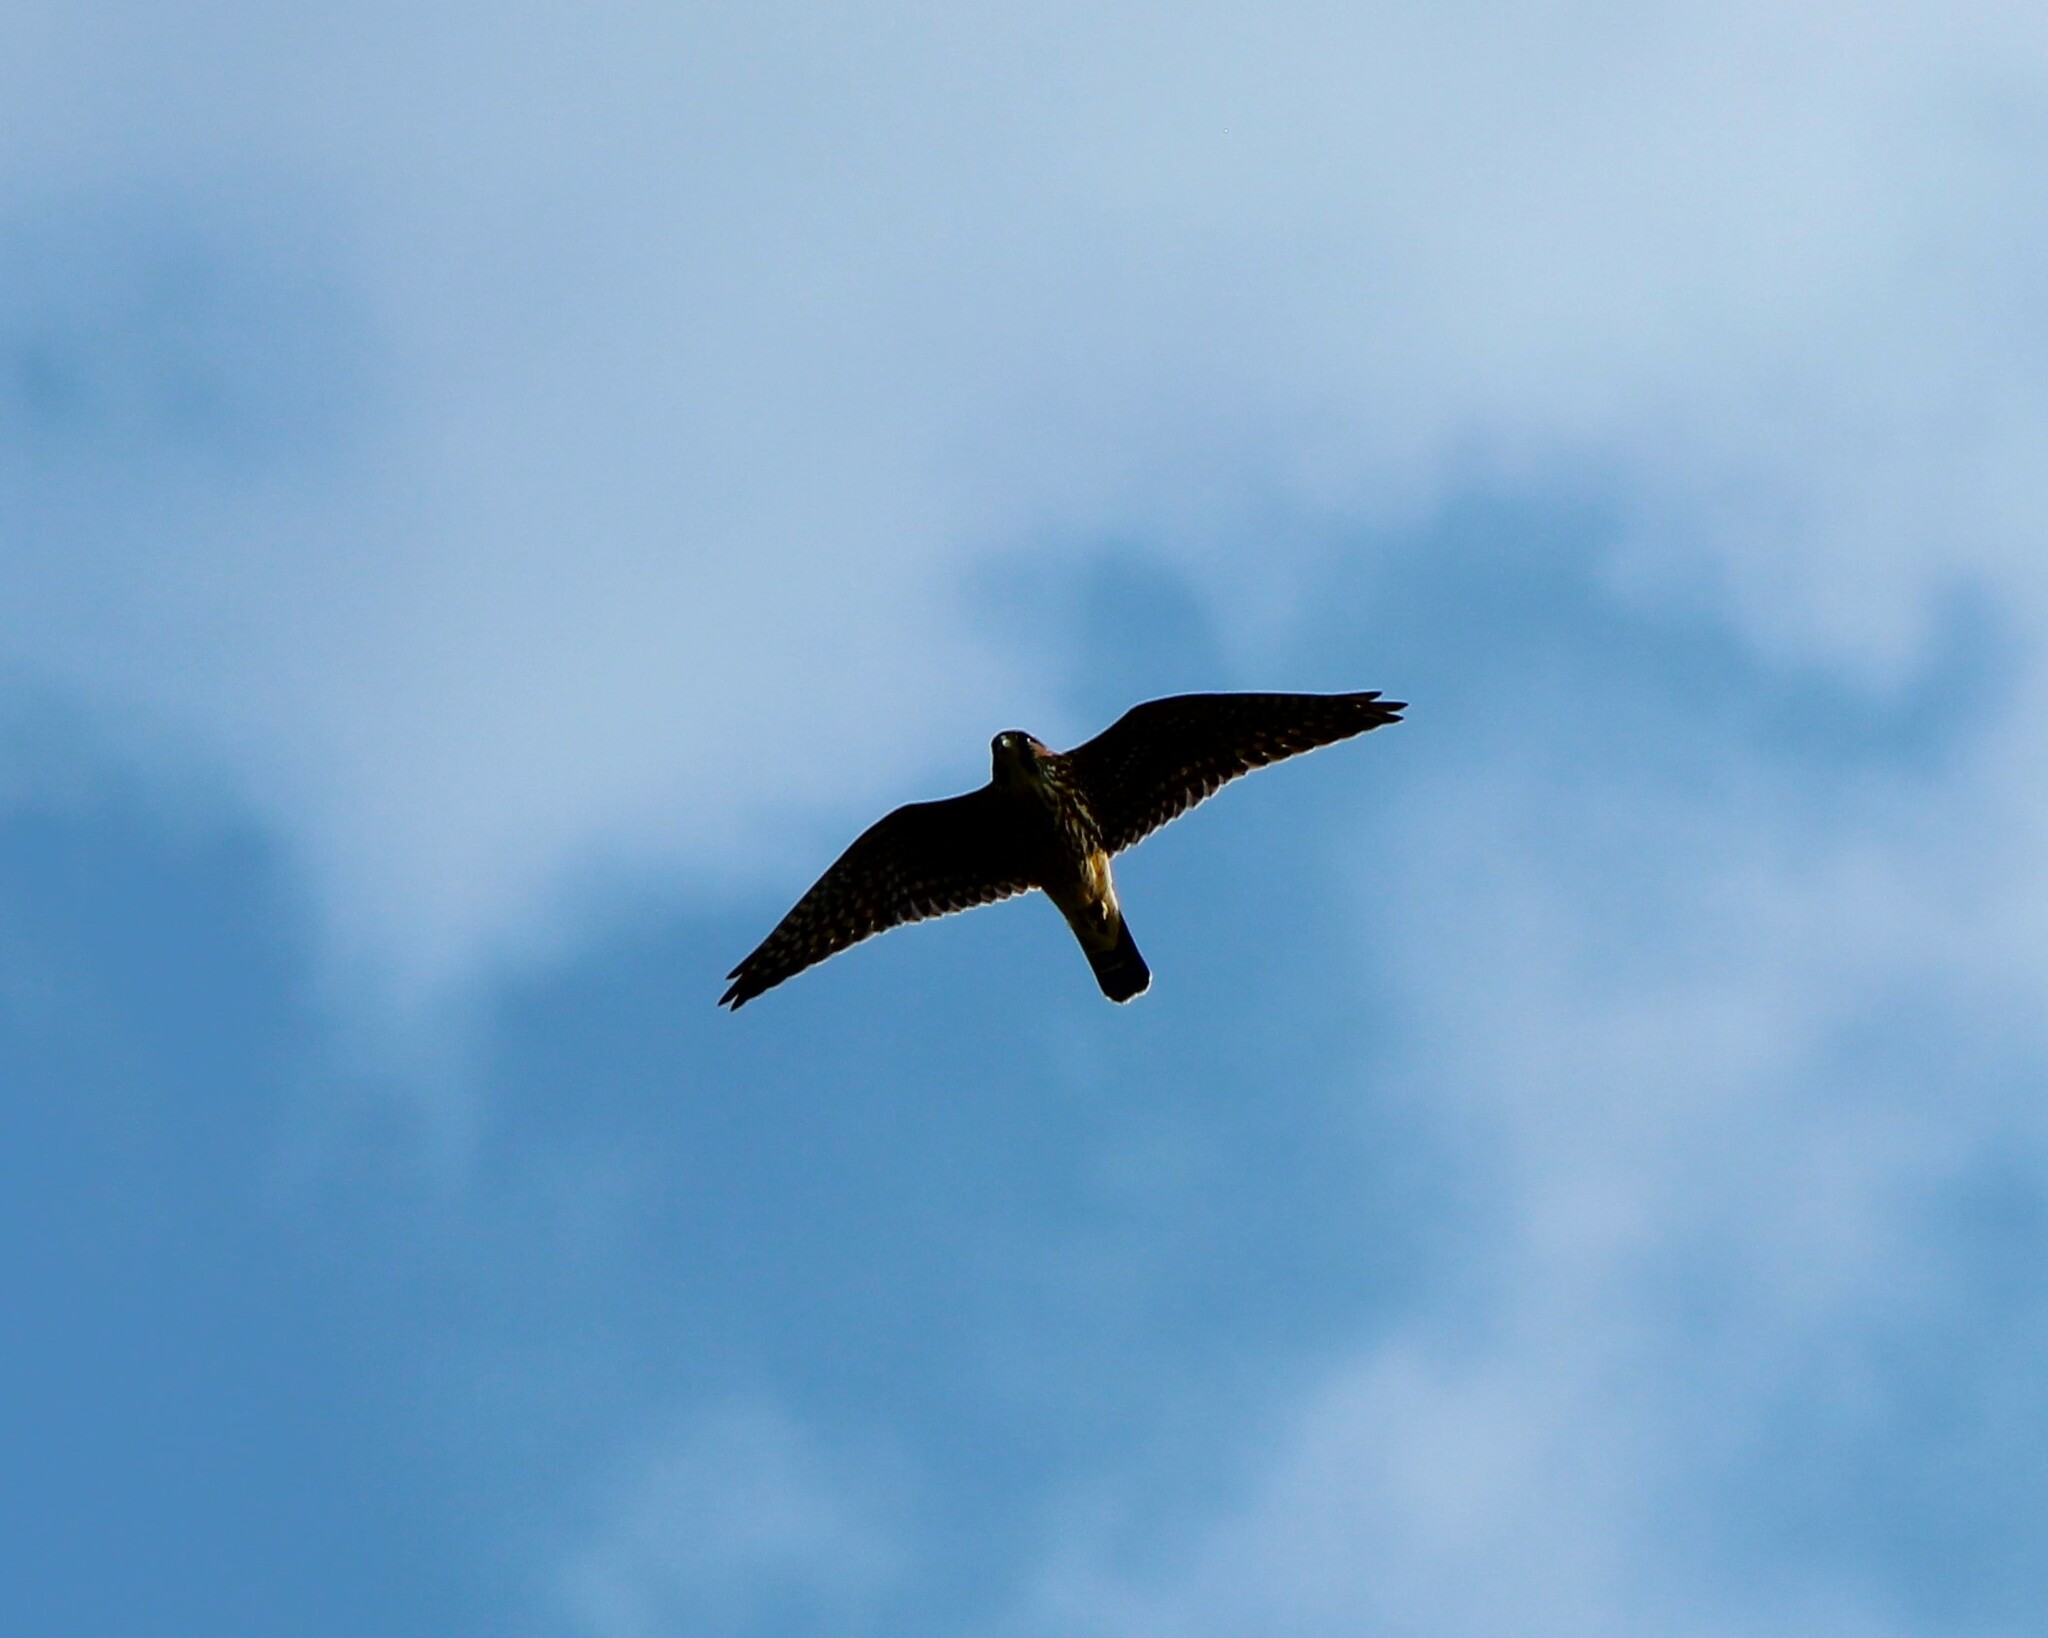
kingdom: Animalia
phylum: Chordata
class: Aves
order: Falconiformes
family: Falconidae
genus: Falco
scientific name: Falco columbarius
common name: Merlin
